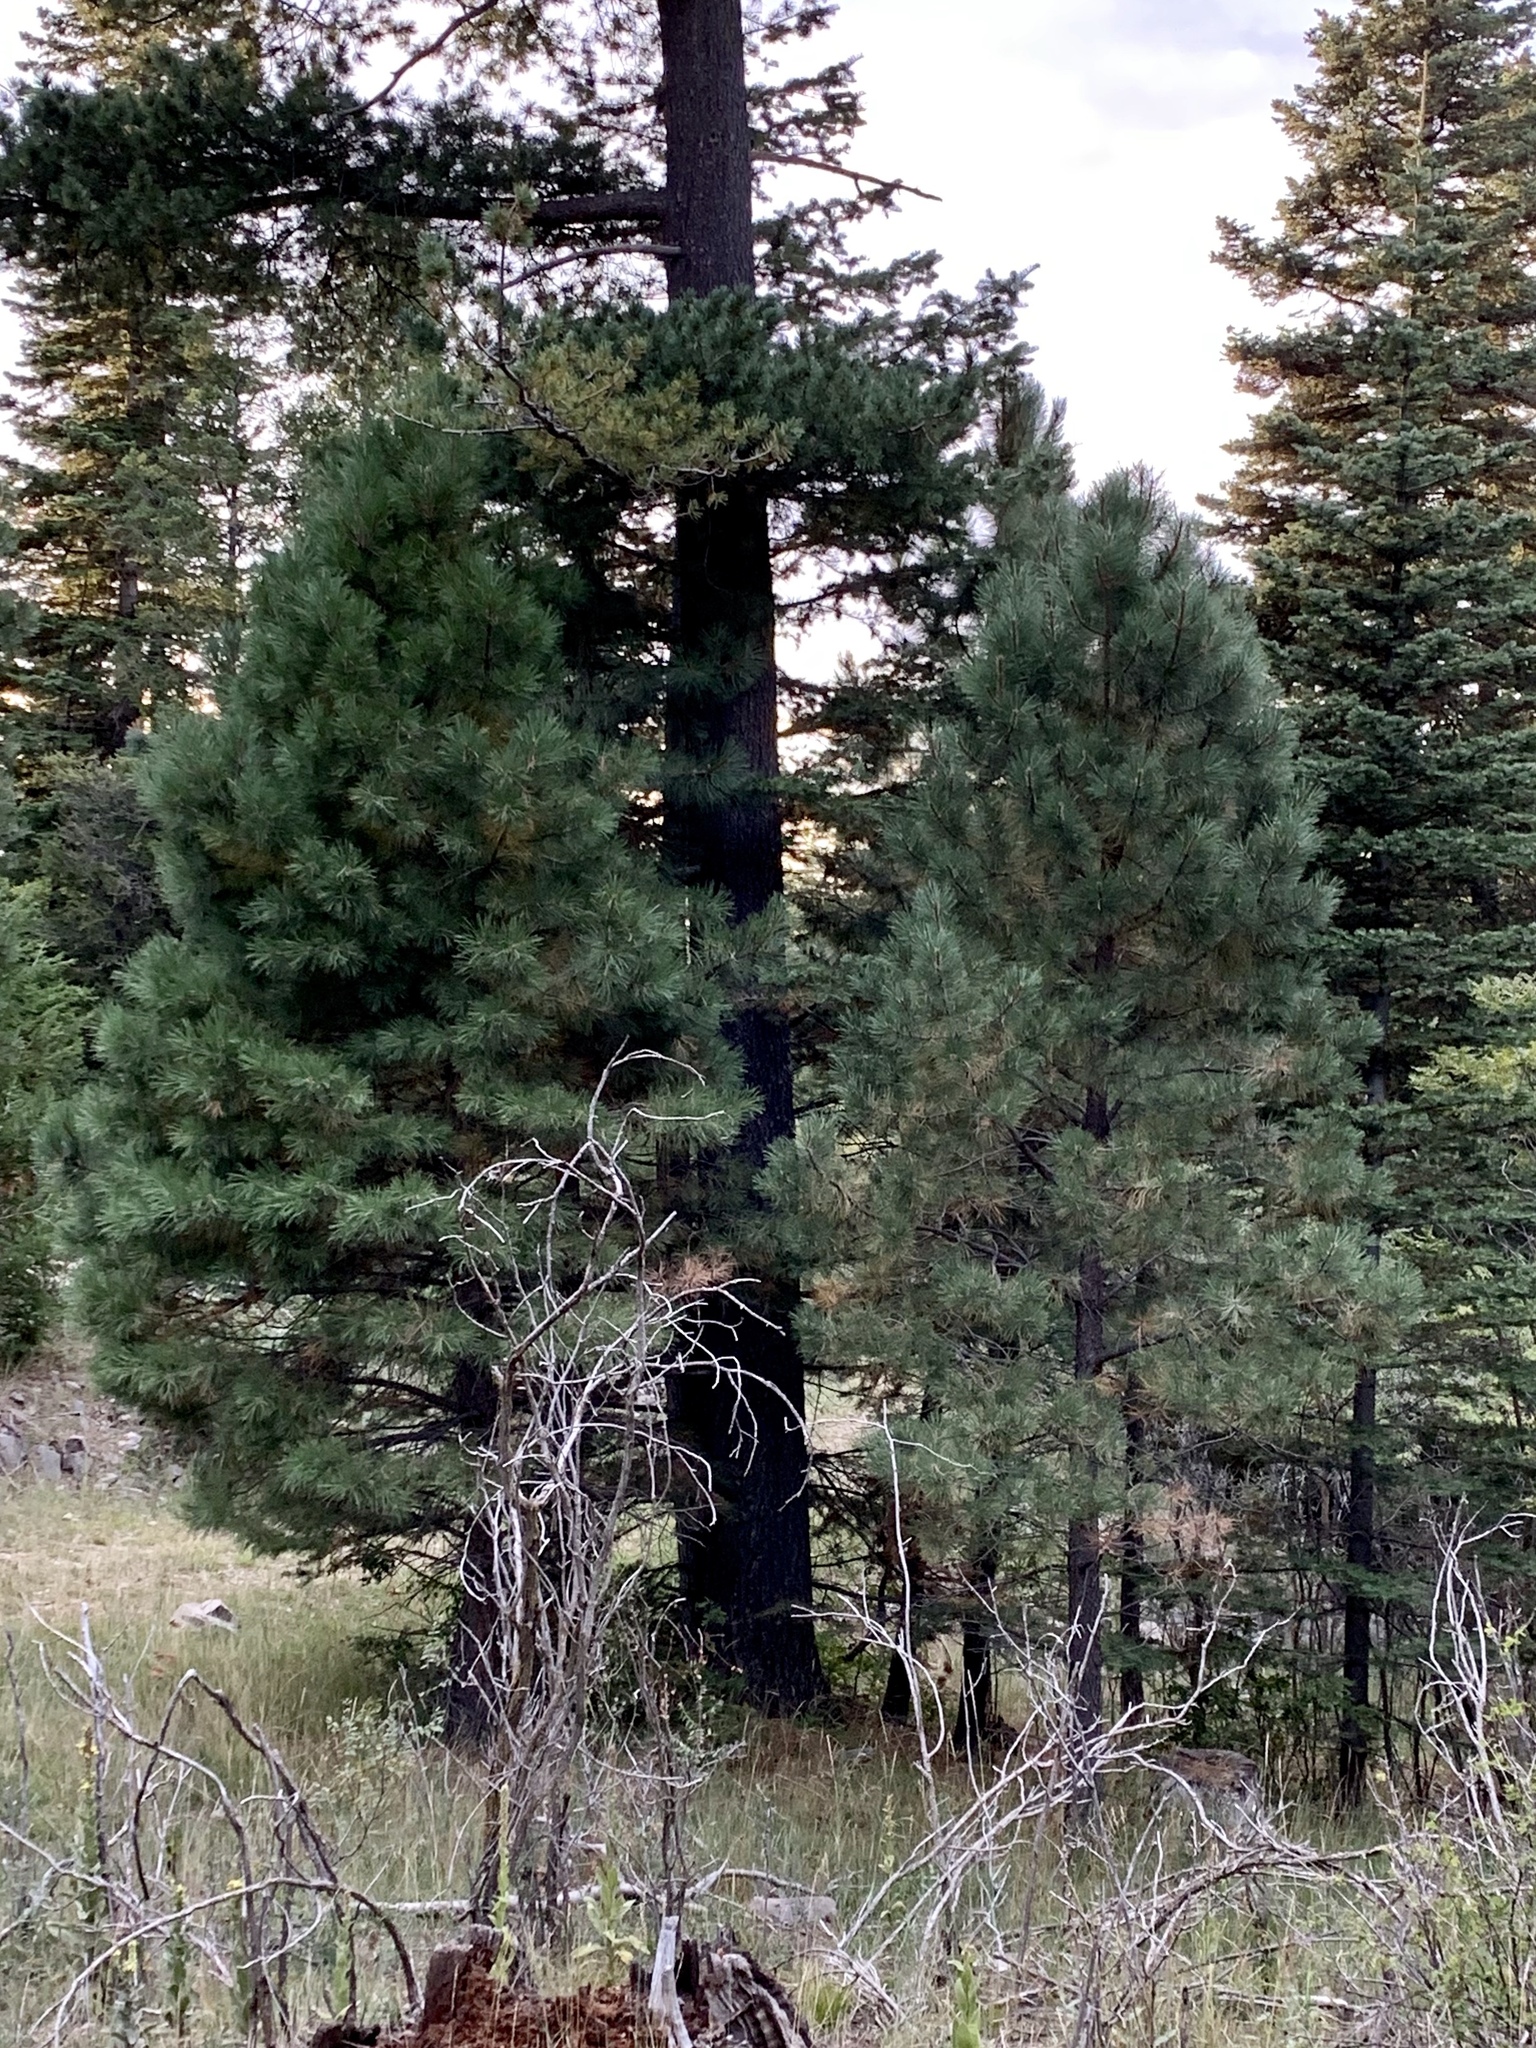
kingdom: Plantae
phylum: Tracheophyta
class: Pinopsida
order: Pinales
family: Pinaceae
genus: Pinus
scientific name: Pinus ponderosa
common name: Western yellow-pine
